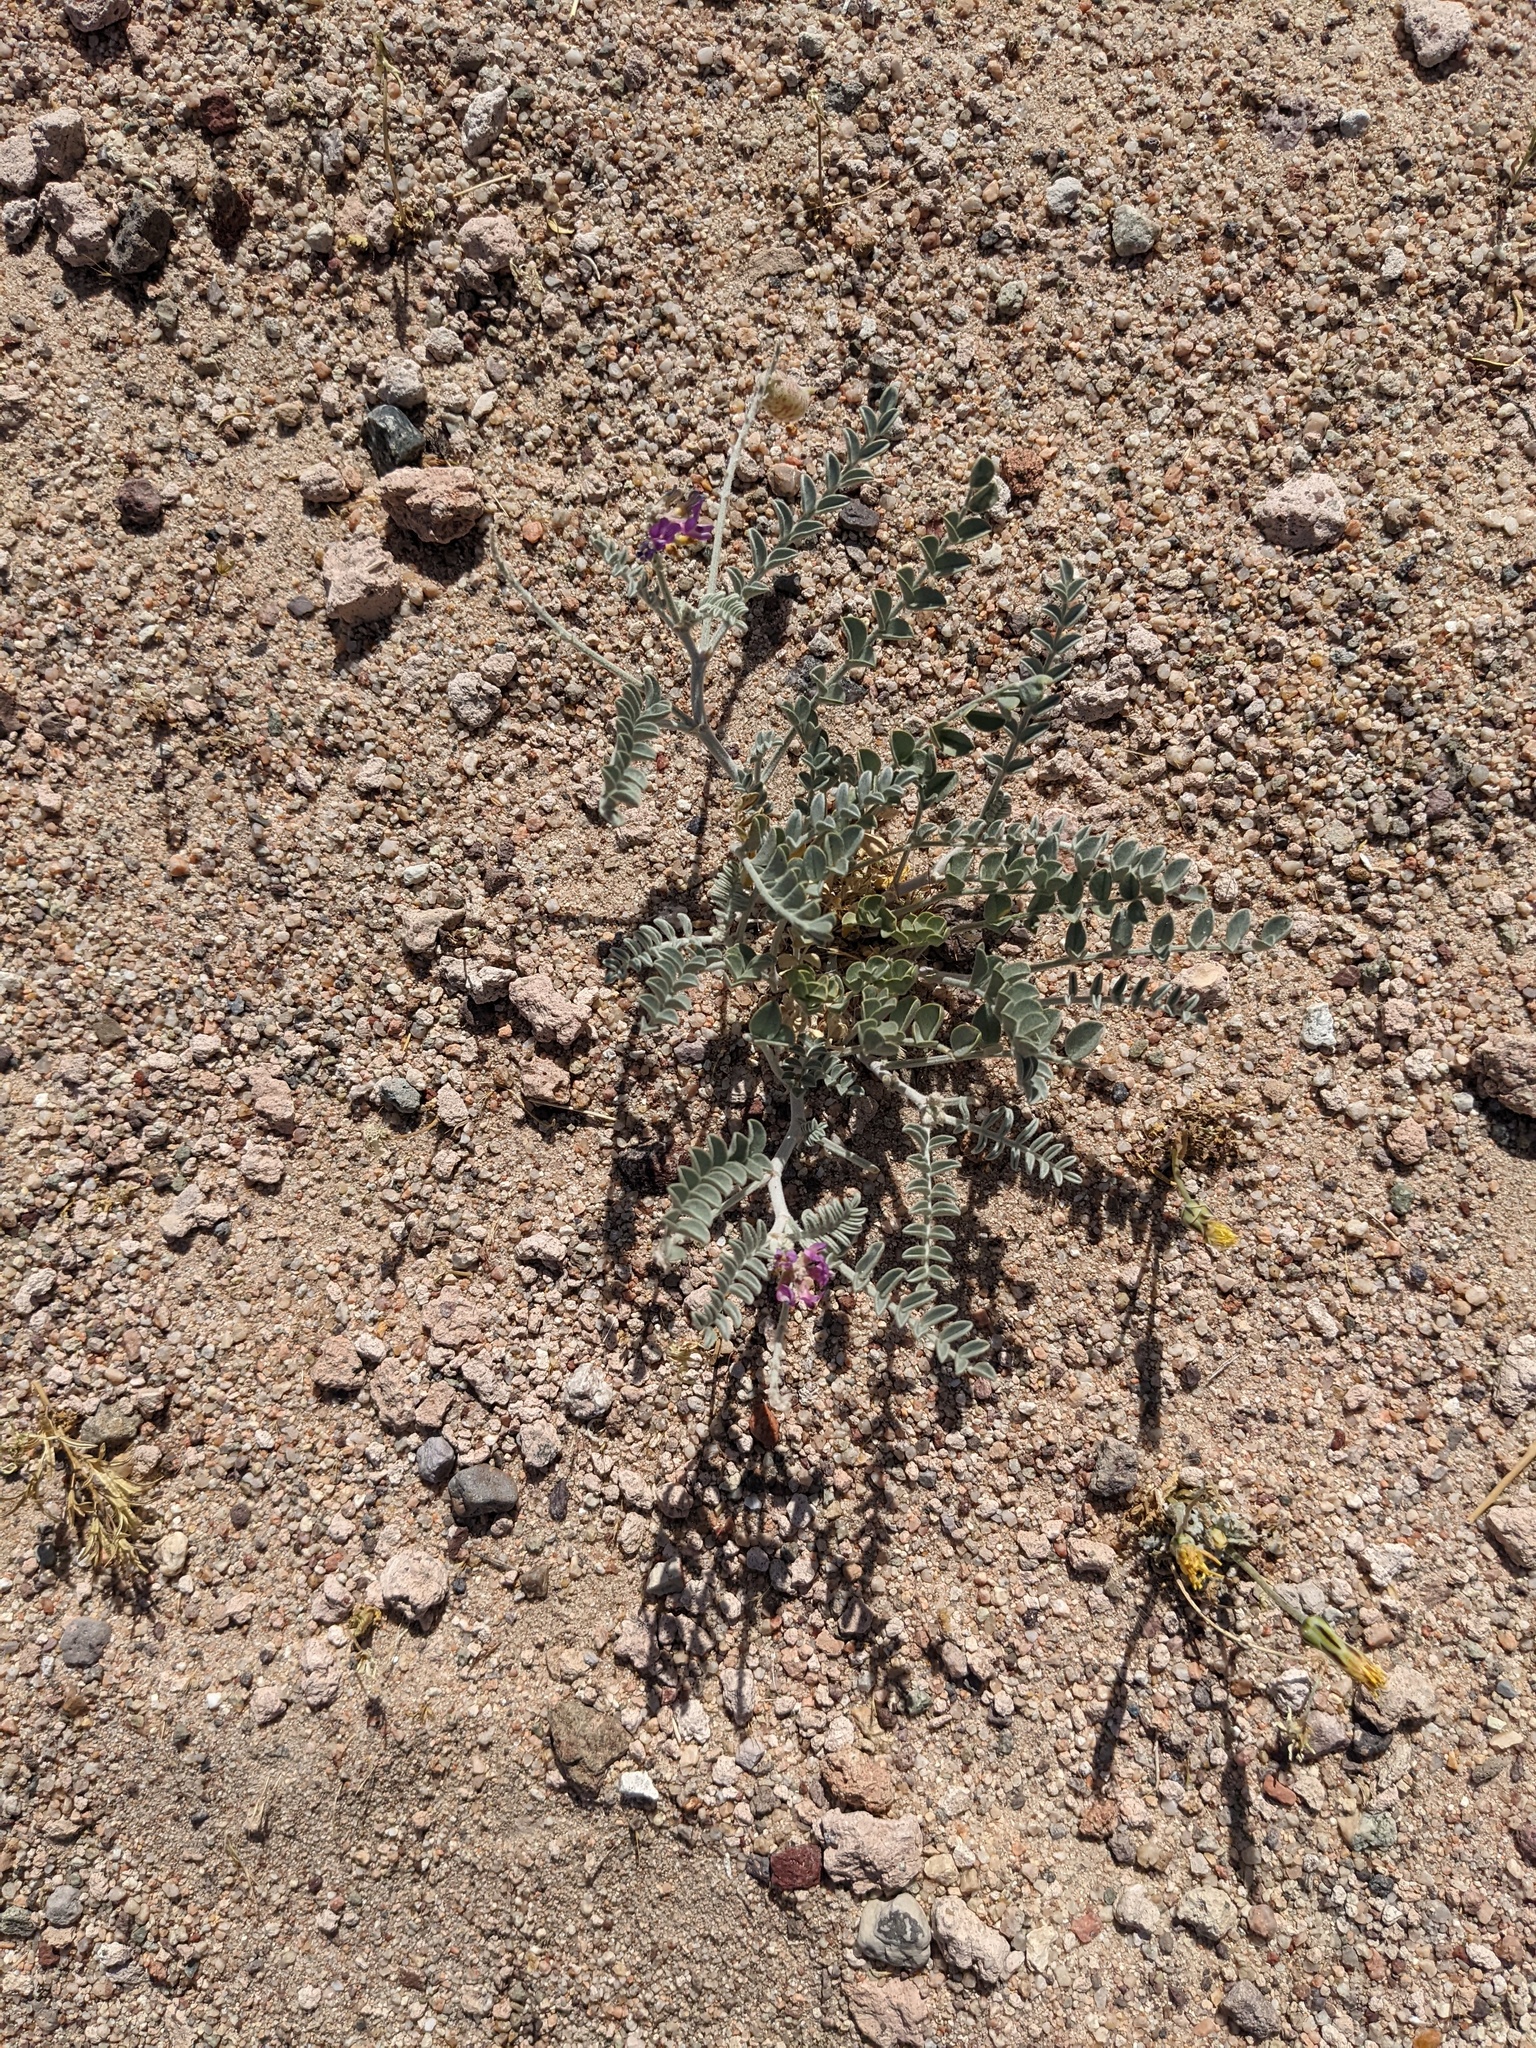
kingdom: Plantae
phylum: Tracheophyta
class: Magnoliopsida
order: Fabales
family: Fabaceae
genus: Astragalus
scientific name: Astragalus lentiginosus
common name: Freckled milkvetch
